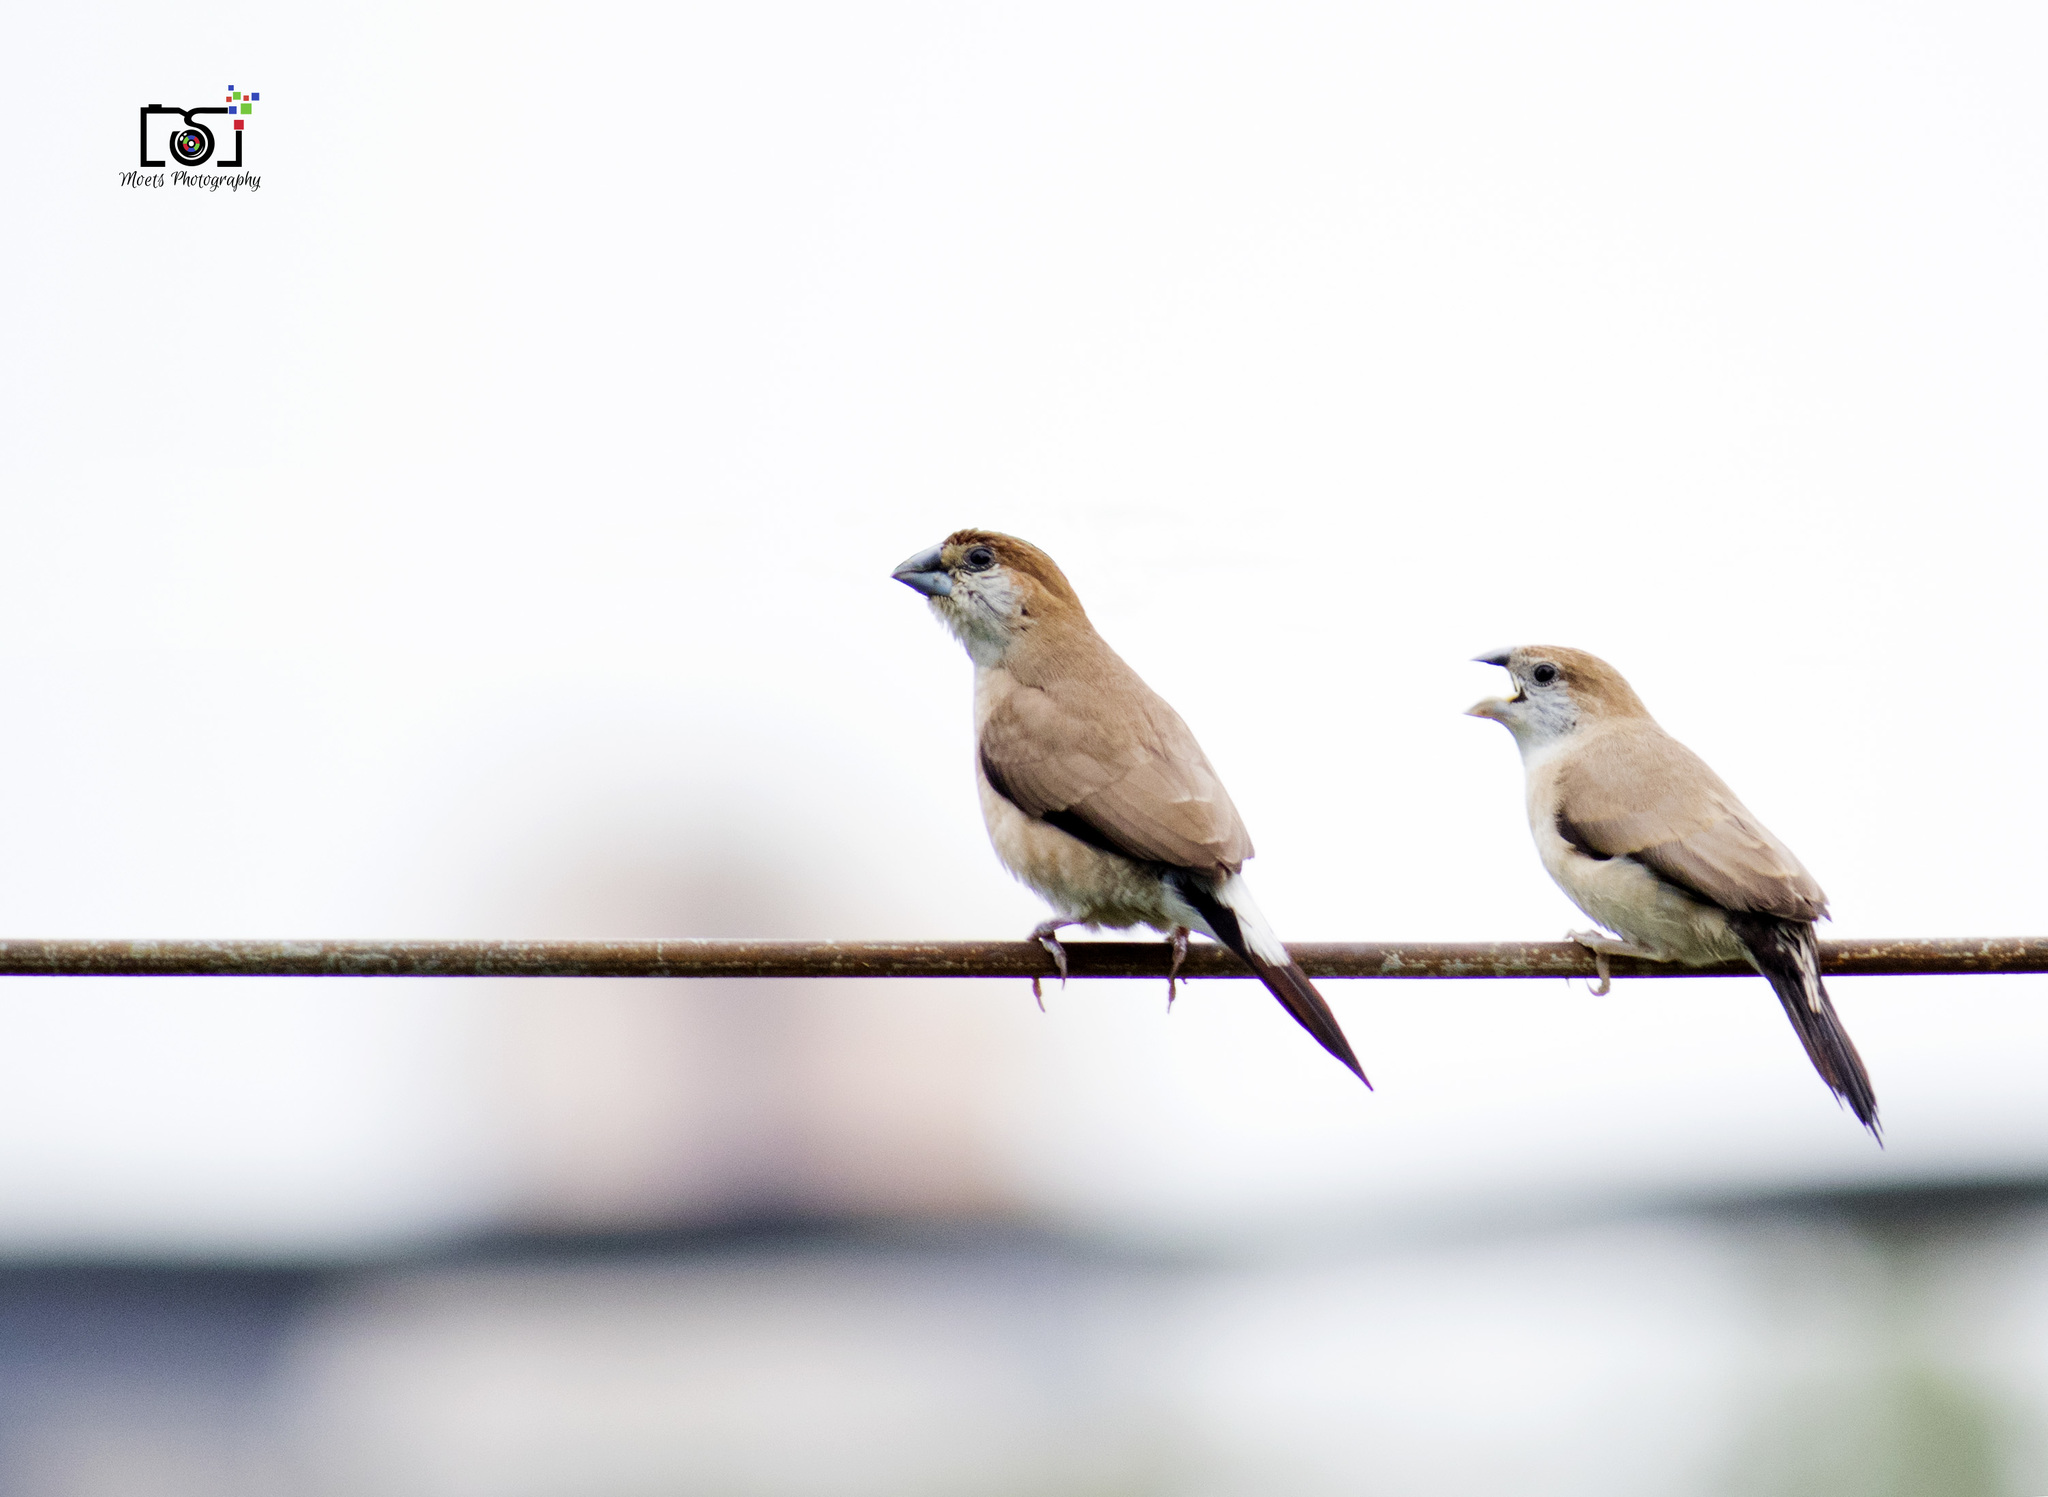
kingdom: Animalia
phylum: Chordata
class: Aves
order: Passeriformes
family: Estrildidae
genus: Euodice
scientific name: Euodice malabarica
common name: Indian silverbill
